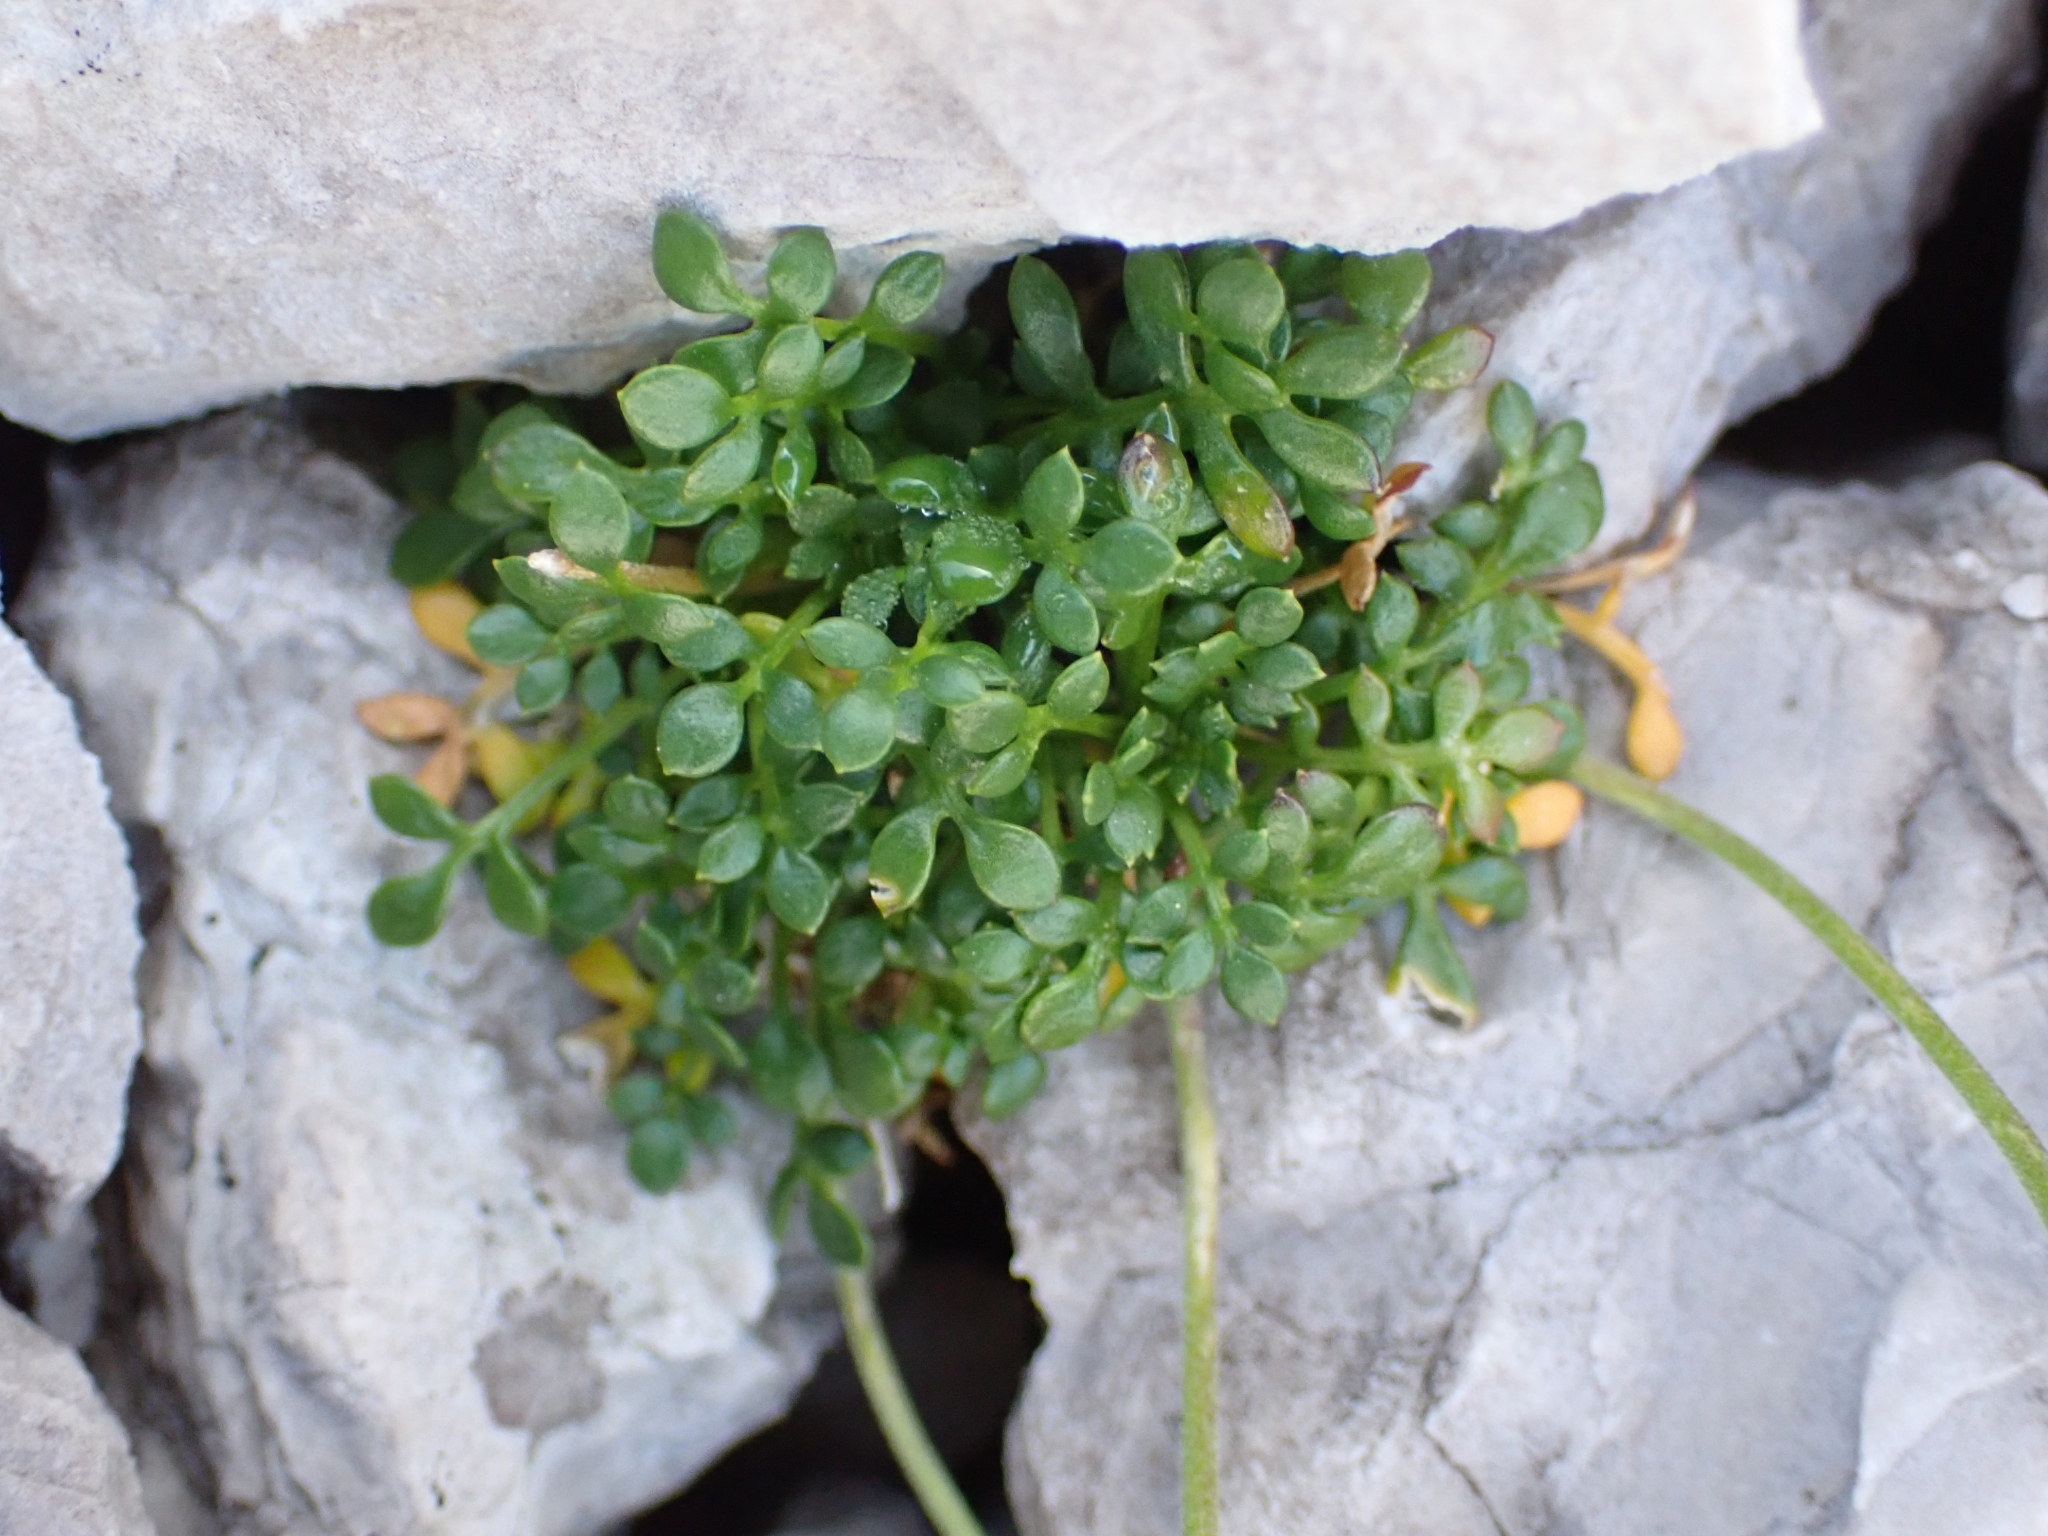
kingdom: Plantae
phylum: Tracheophyta
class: Magnoliopsida
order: Brassicales
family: Brassicaceae
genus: Hornungia
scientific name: Hornungia alpina
